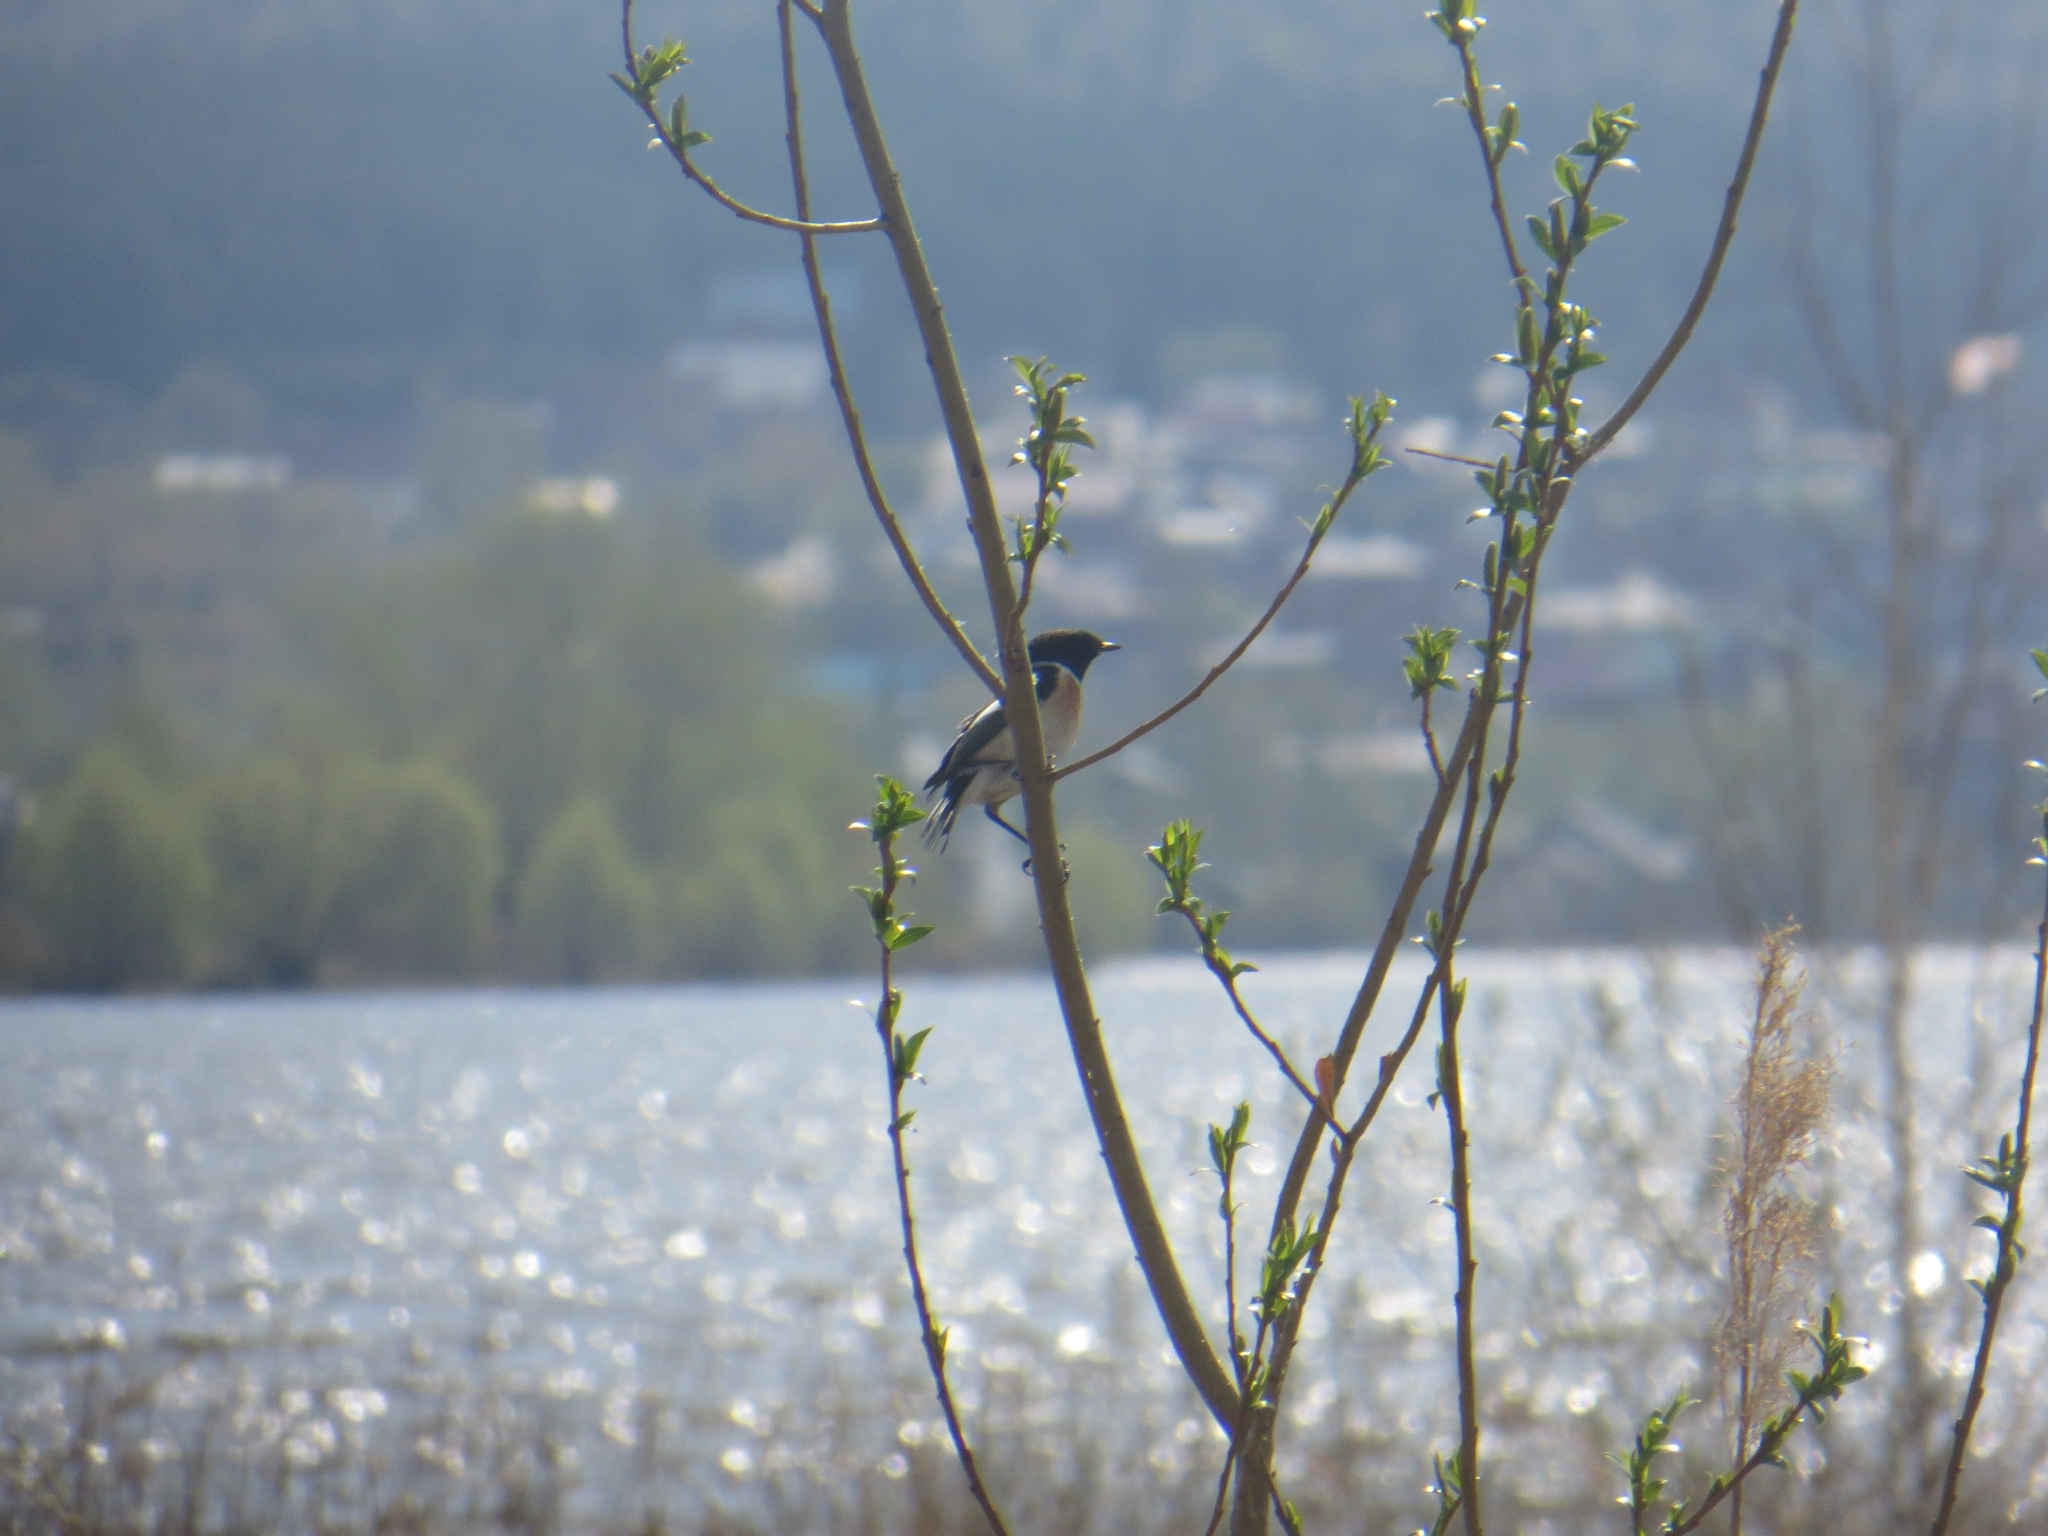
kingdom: Animalia
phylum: Chordata
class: Aves
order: Passeriformes
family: Muscicapidae
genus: Saxicola
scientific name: Saxicola maurus
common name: Siberian stonechat
